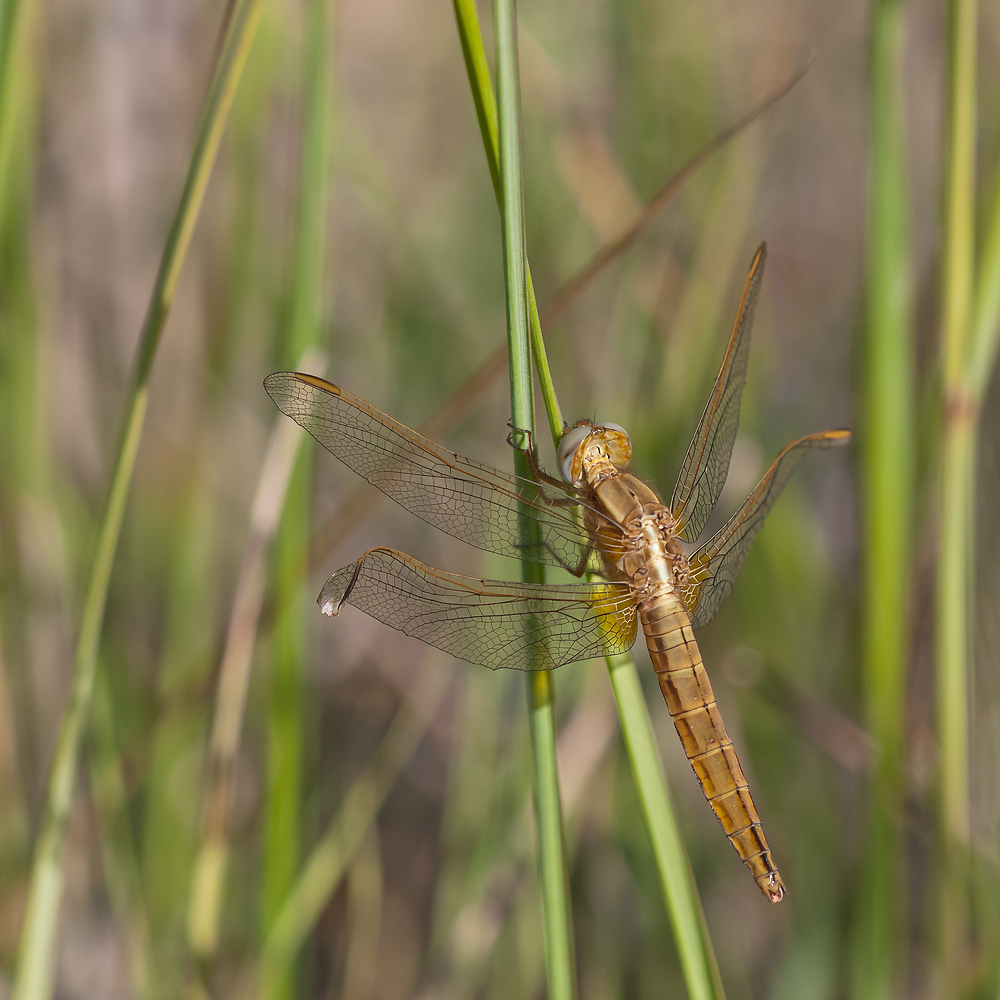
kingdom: Animalia
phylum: Arthropoda
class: Insecta
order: Odonata
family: Libellulidae
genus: Crocothemis
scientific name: Crocothemis erythraea
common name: Scarlet dragonfly
